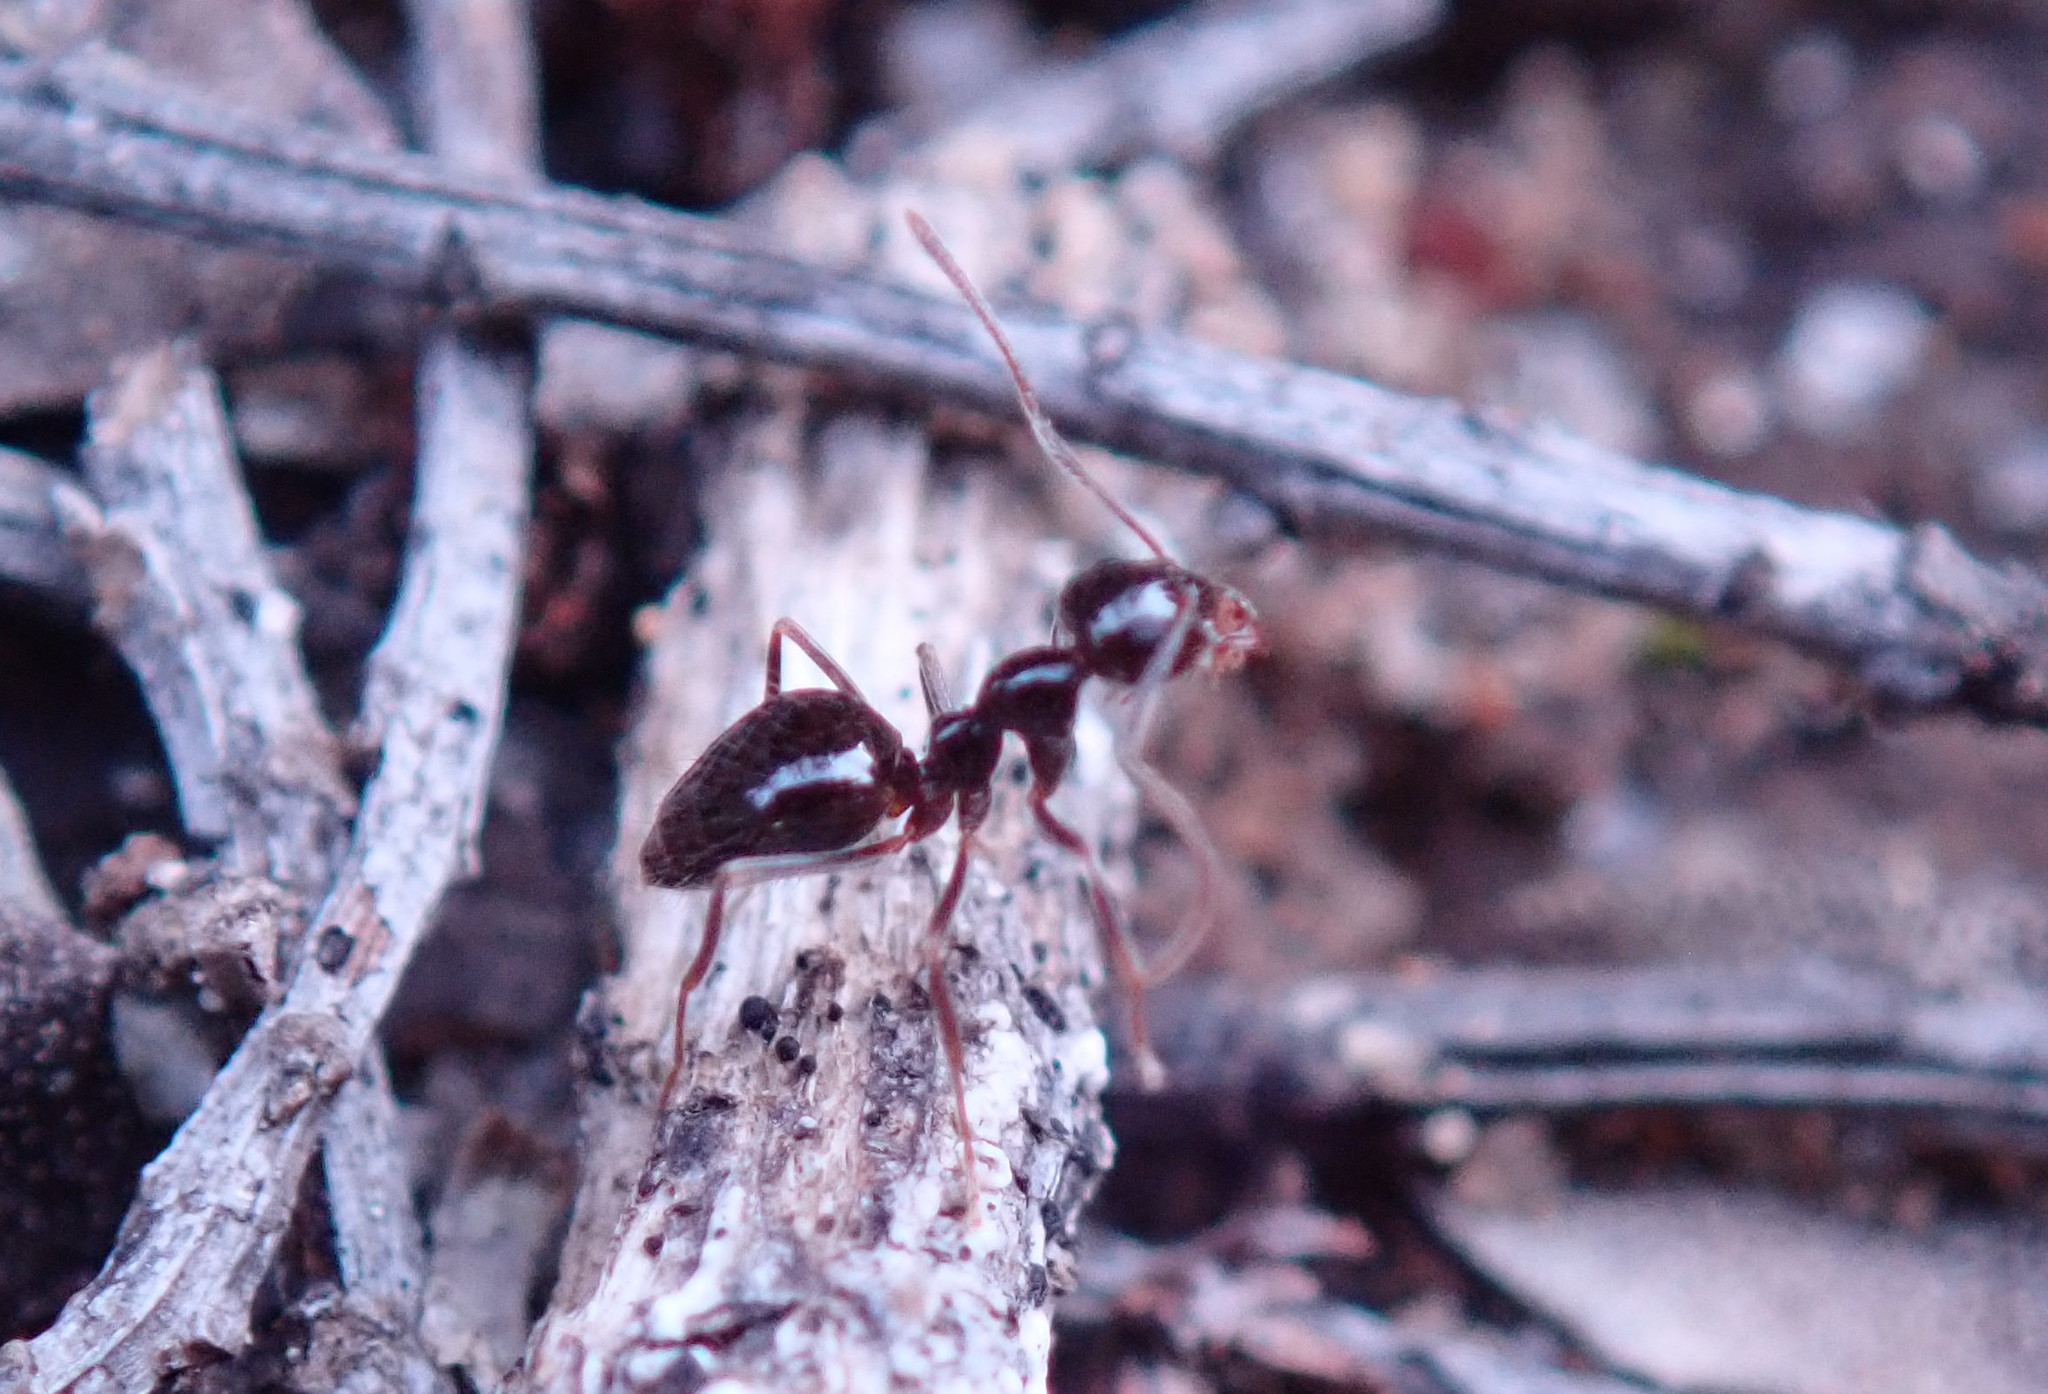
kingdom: Animalia
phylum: Arthropoda
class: Insecta
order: Hymenoptera
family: Formicidae
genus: Prenolepis
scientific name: Prenolepis imparis
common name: Small honey ant
